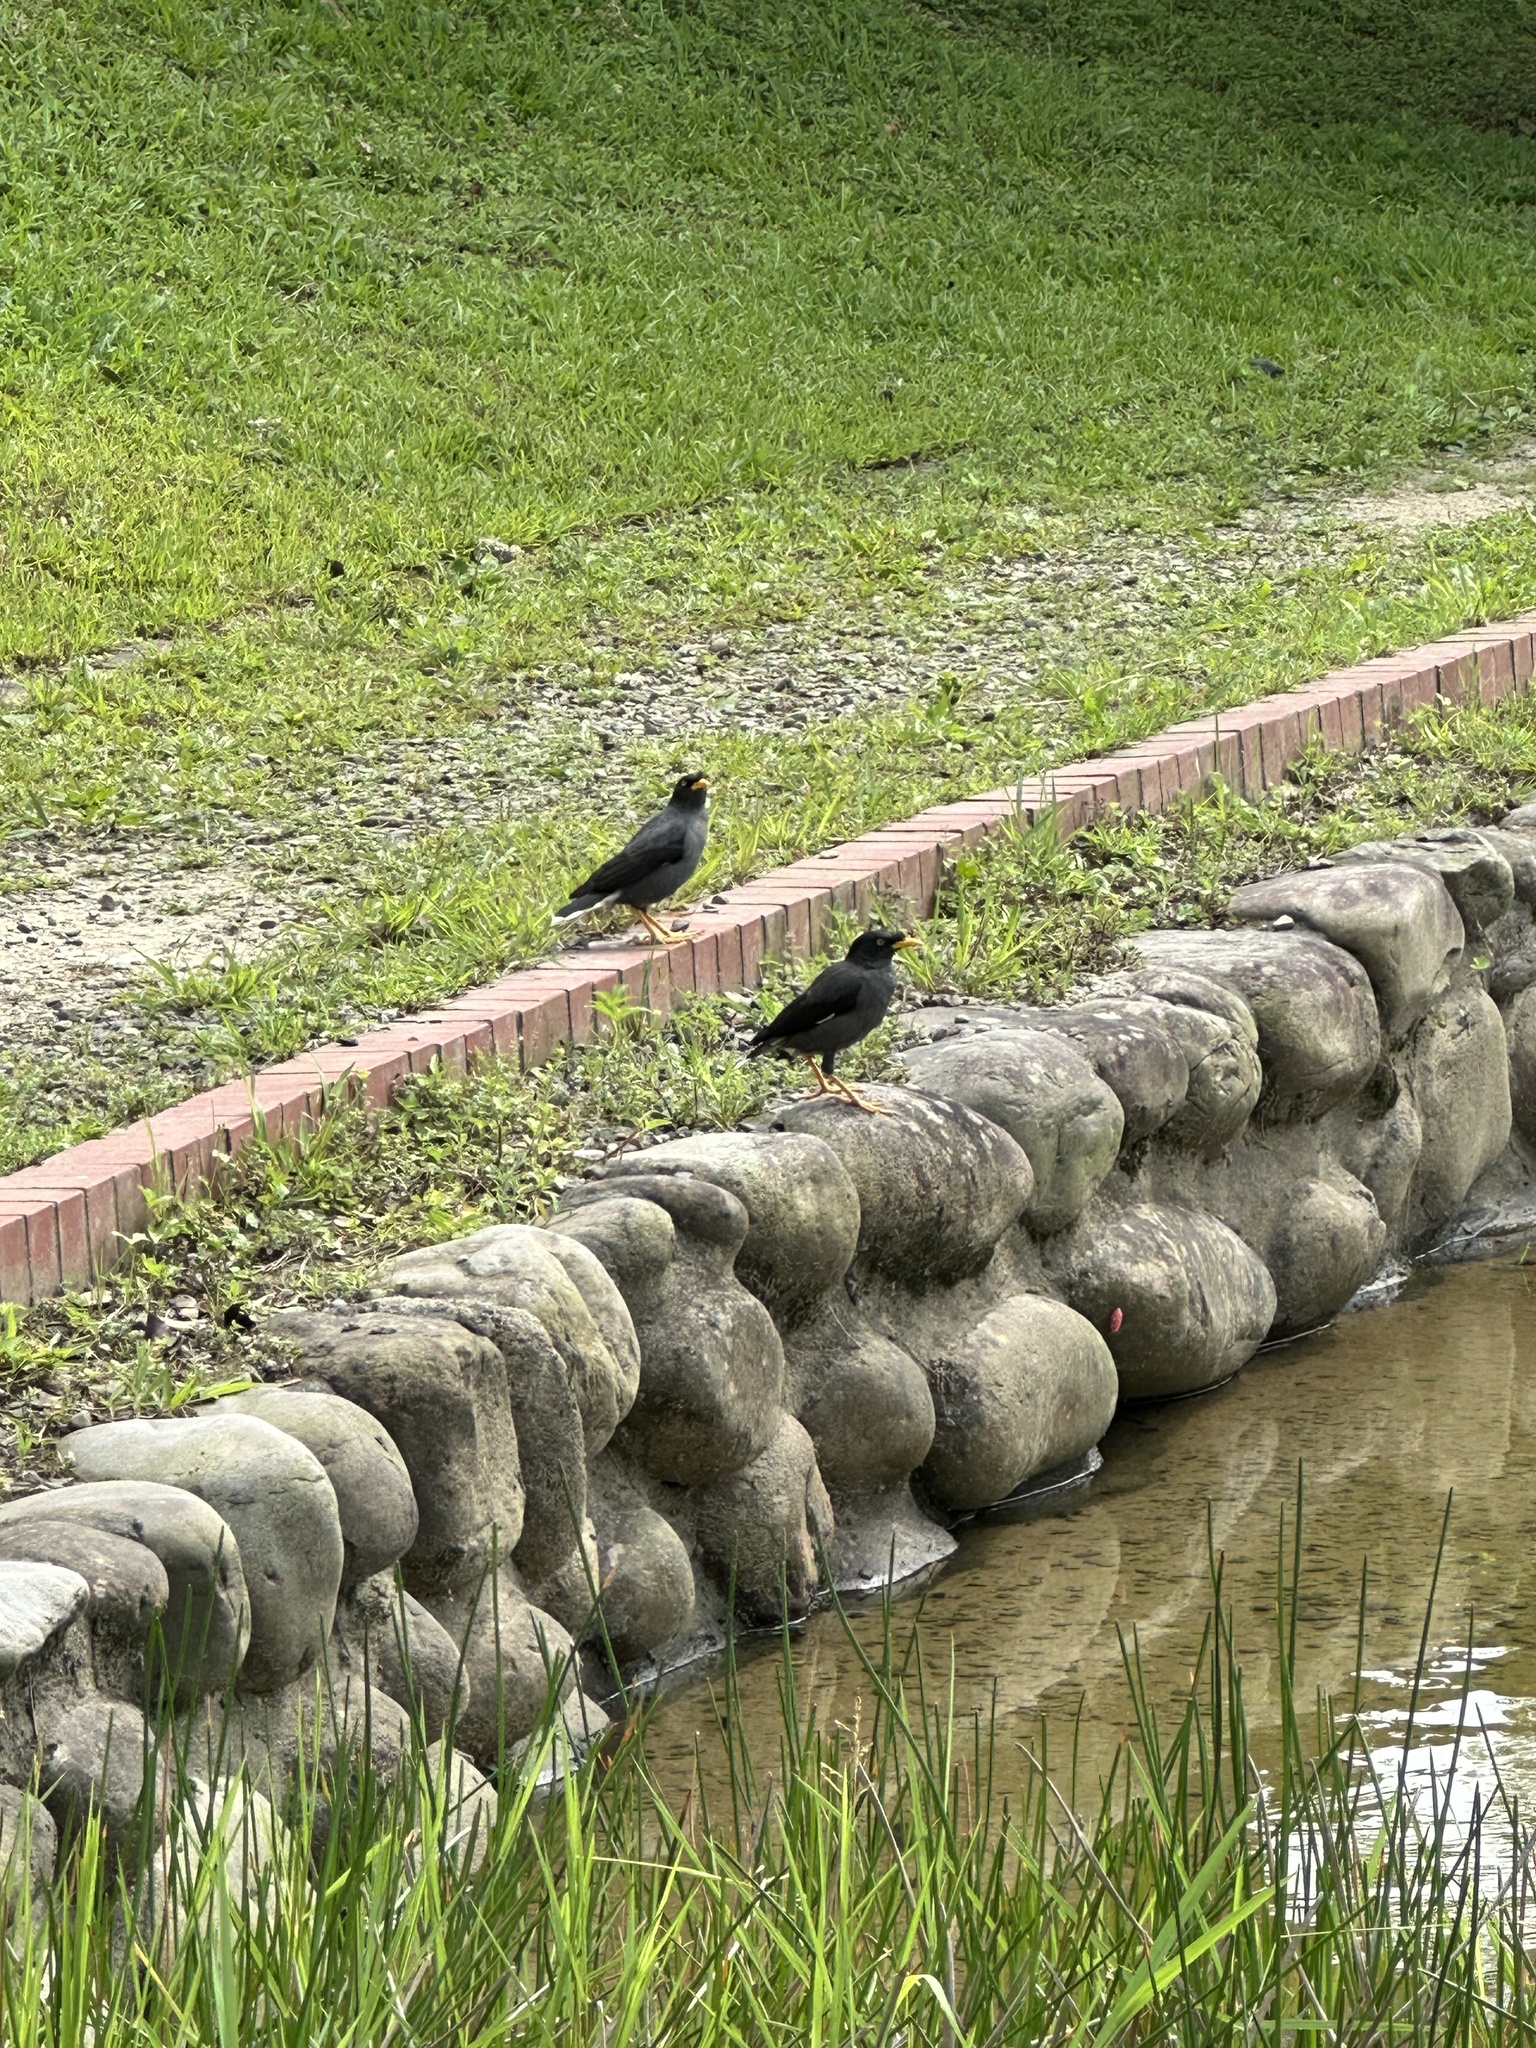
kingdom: Animalia
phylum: Chordata
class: Aves
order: Passeriformes
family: Sturnidae
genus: Acridotheres
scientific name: Acridotheres javanicus
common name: Javan myna
